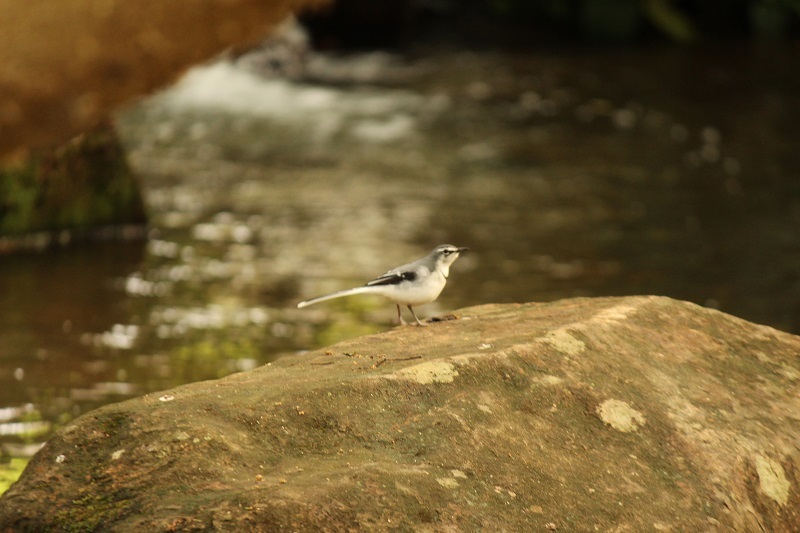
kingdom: Animalia
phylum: Chordata
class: Aves
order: Passeriformes
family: Motacillidae
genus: Motacilla
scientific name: Motacilla clara
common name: Mountain wagtail
